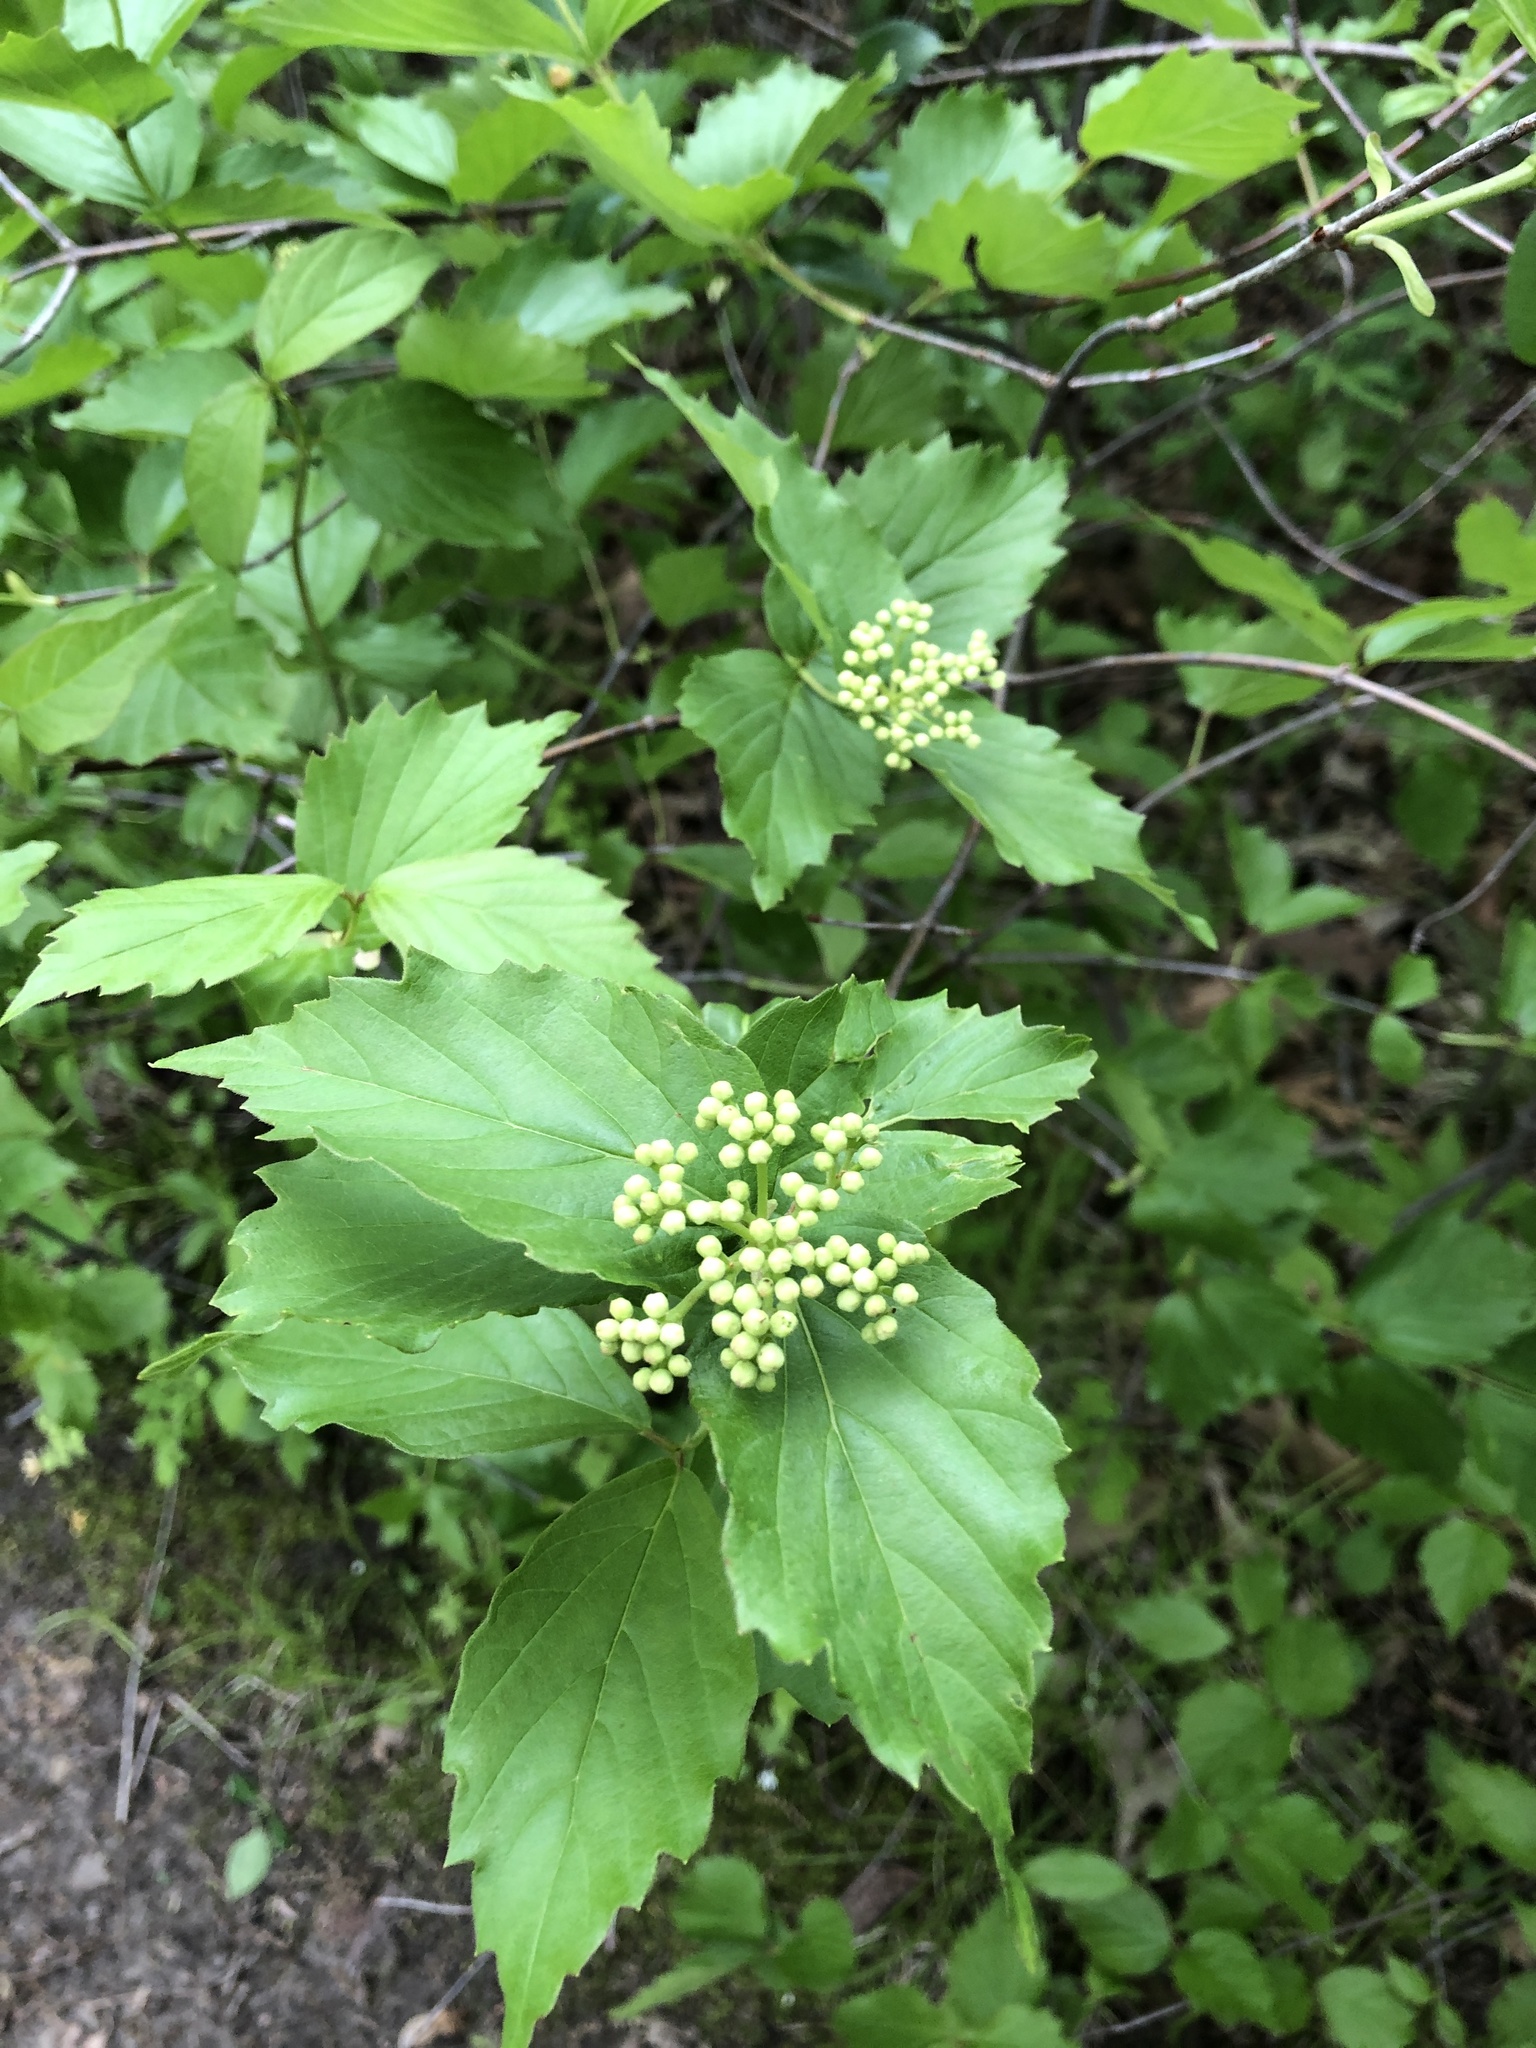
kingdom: Plantae
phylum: Tracheophyta
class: Magnoliopsida
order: Dipsacales
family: Viburnaceae
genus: Viburnum
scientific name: Viburnum rafinesqueanum
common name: Downy arrow-wood
